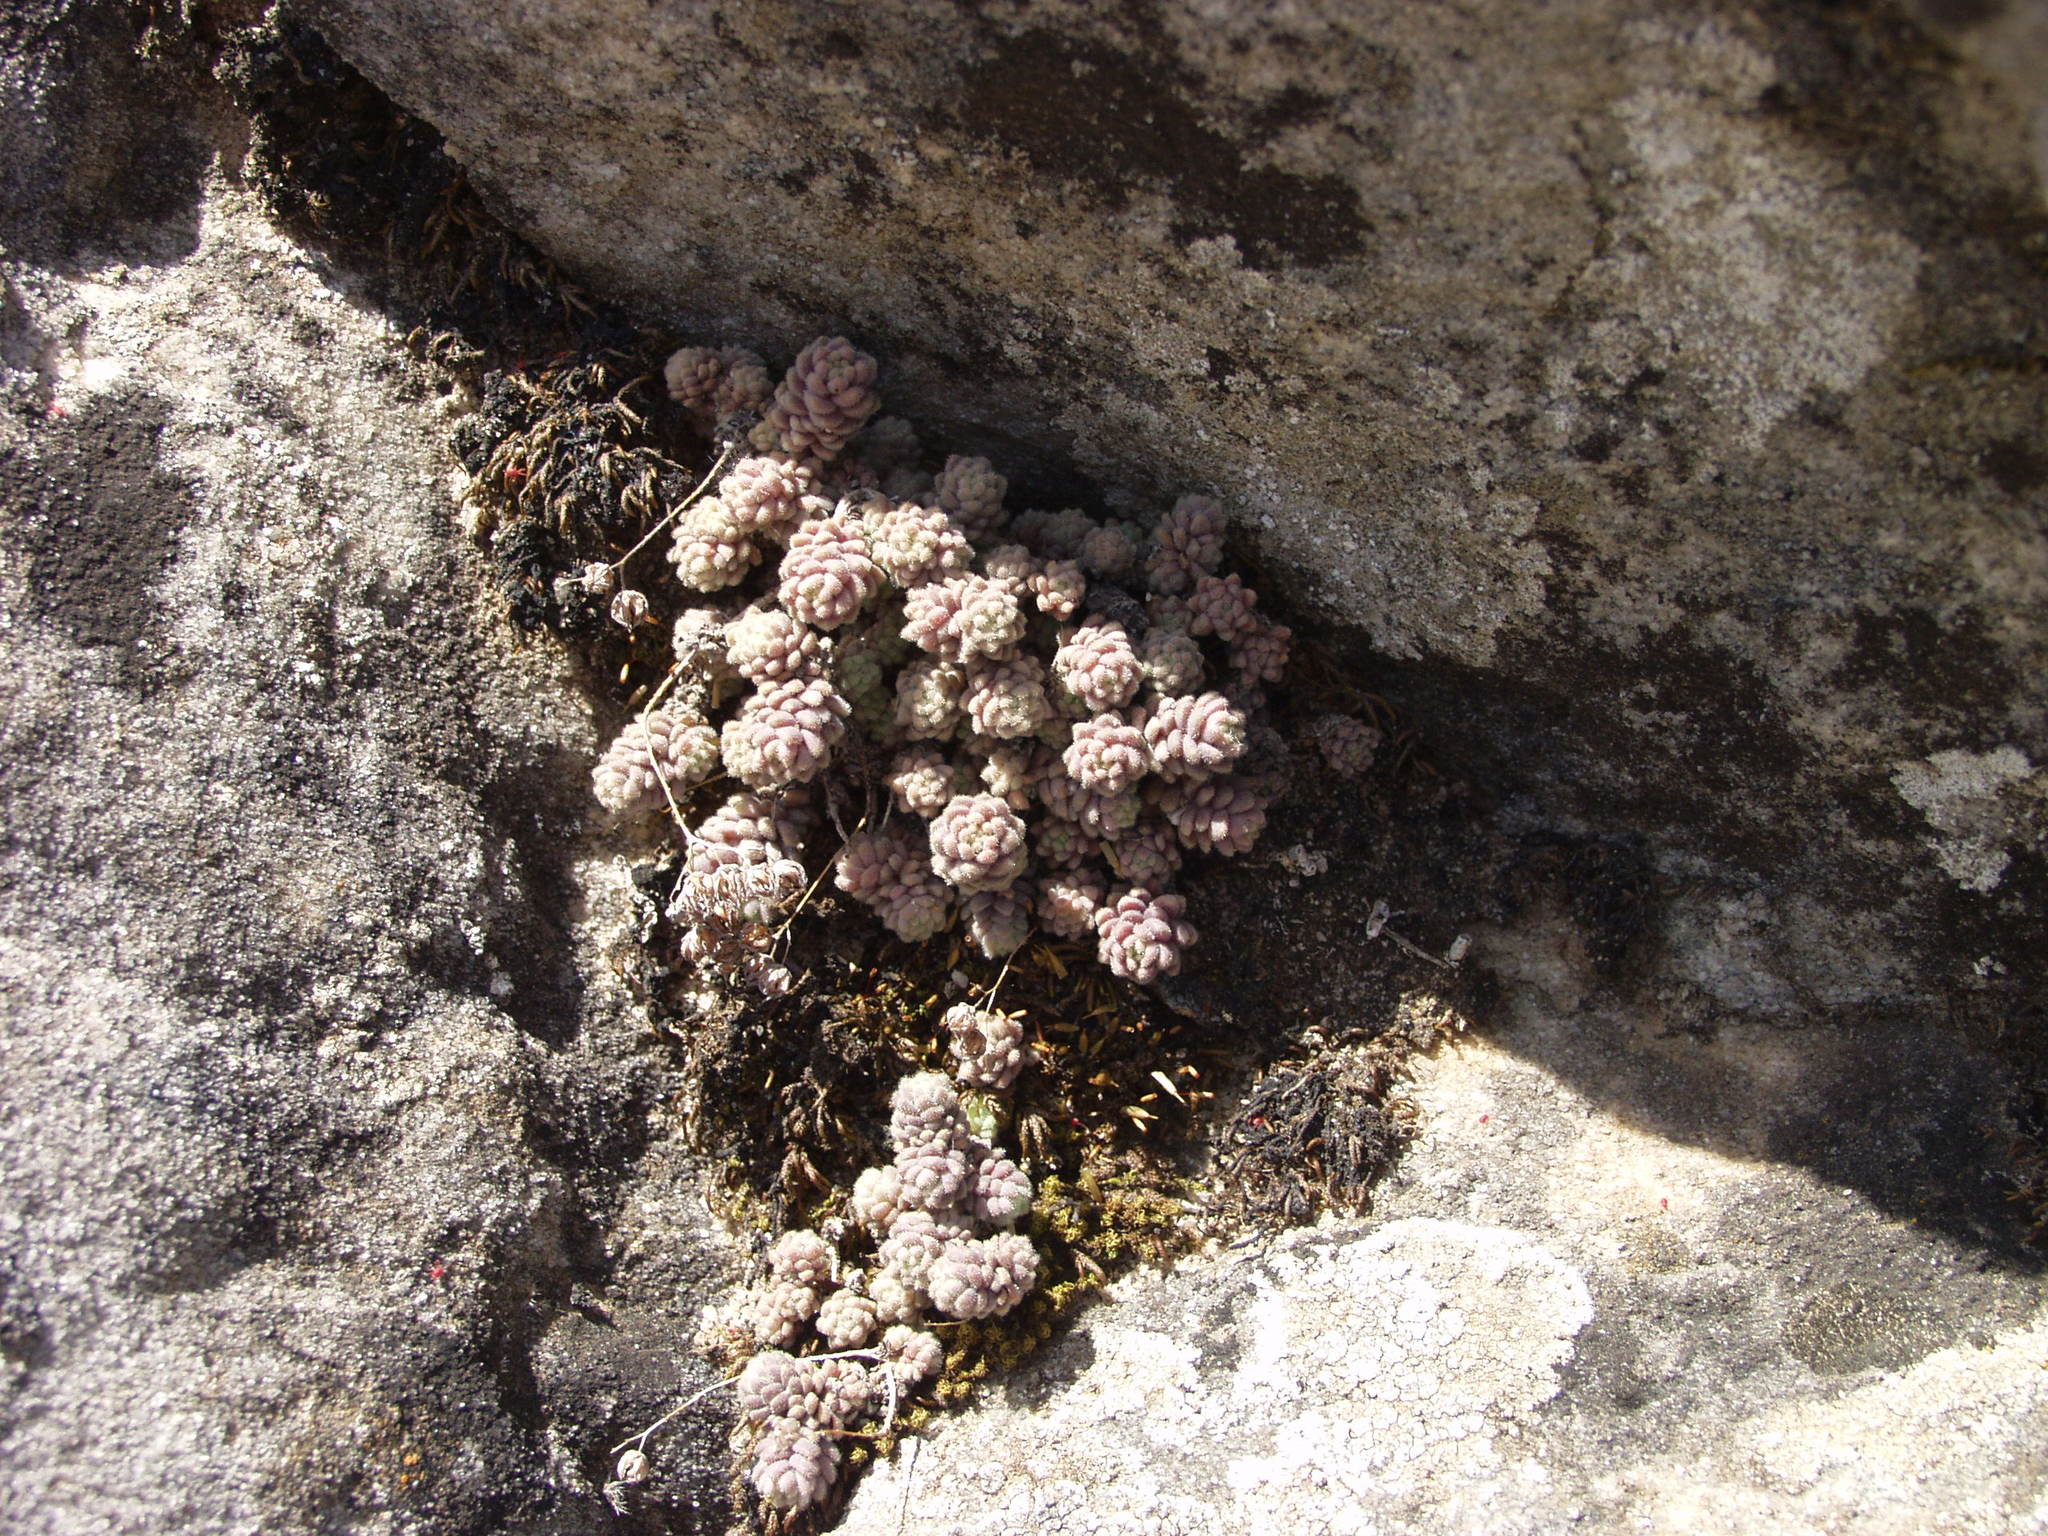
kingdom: Plantae
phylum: Tracheophyta
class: Magnoliopsida
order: Saxifragales
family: Crassulaceae
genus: Sedum
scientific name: Sedum dasyphyllum
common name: Thick-leaf stonecrop
